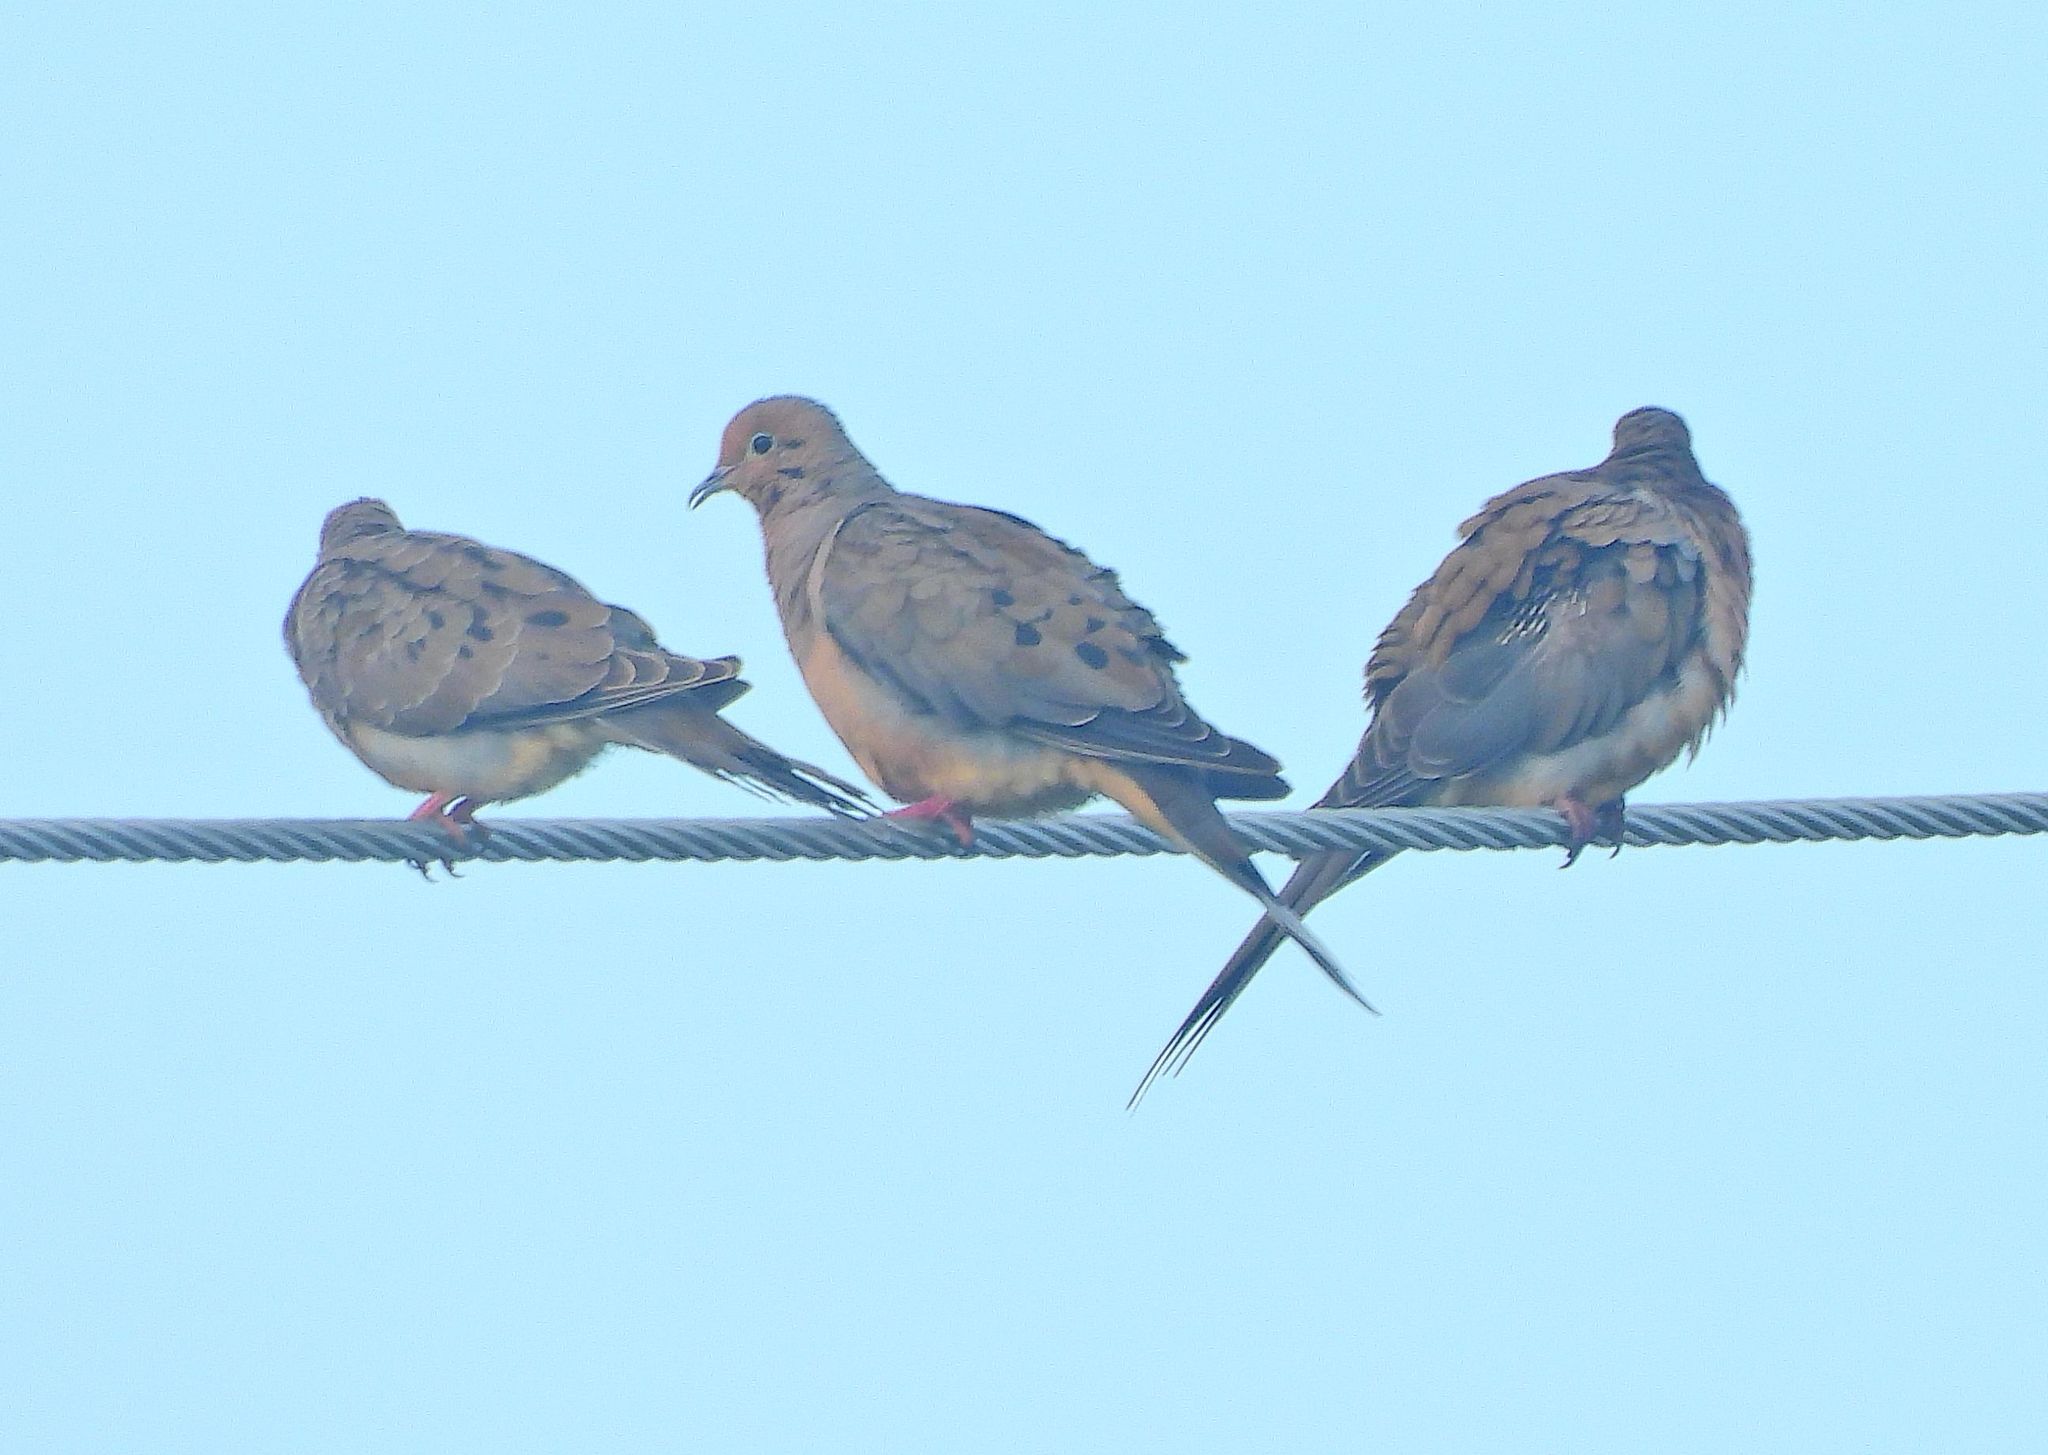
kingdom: Animalia
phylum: Chordata
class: Aves
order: Columbiformes
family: Columbidae
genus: Zenaida
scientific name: Zenaida macroura
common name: Mourning dove
